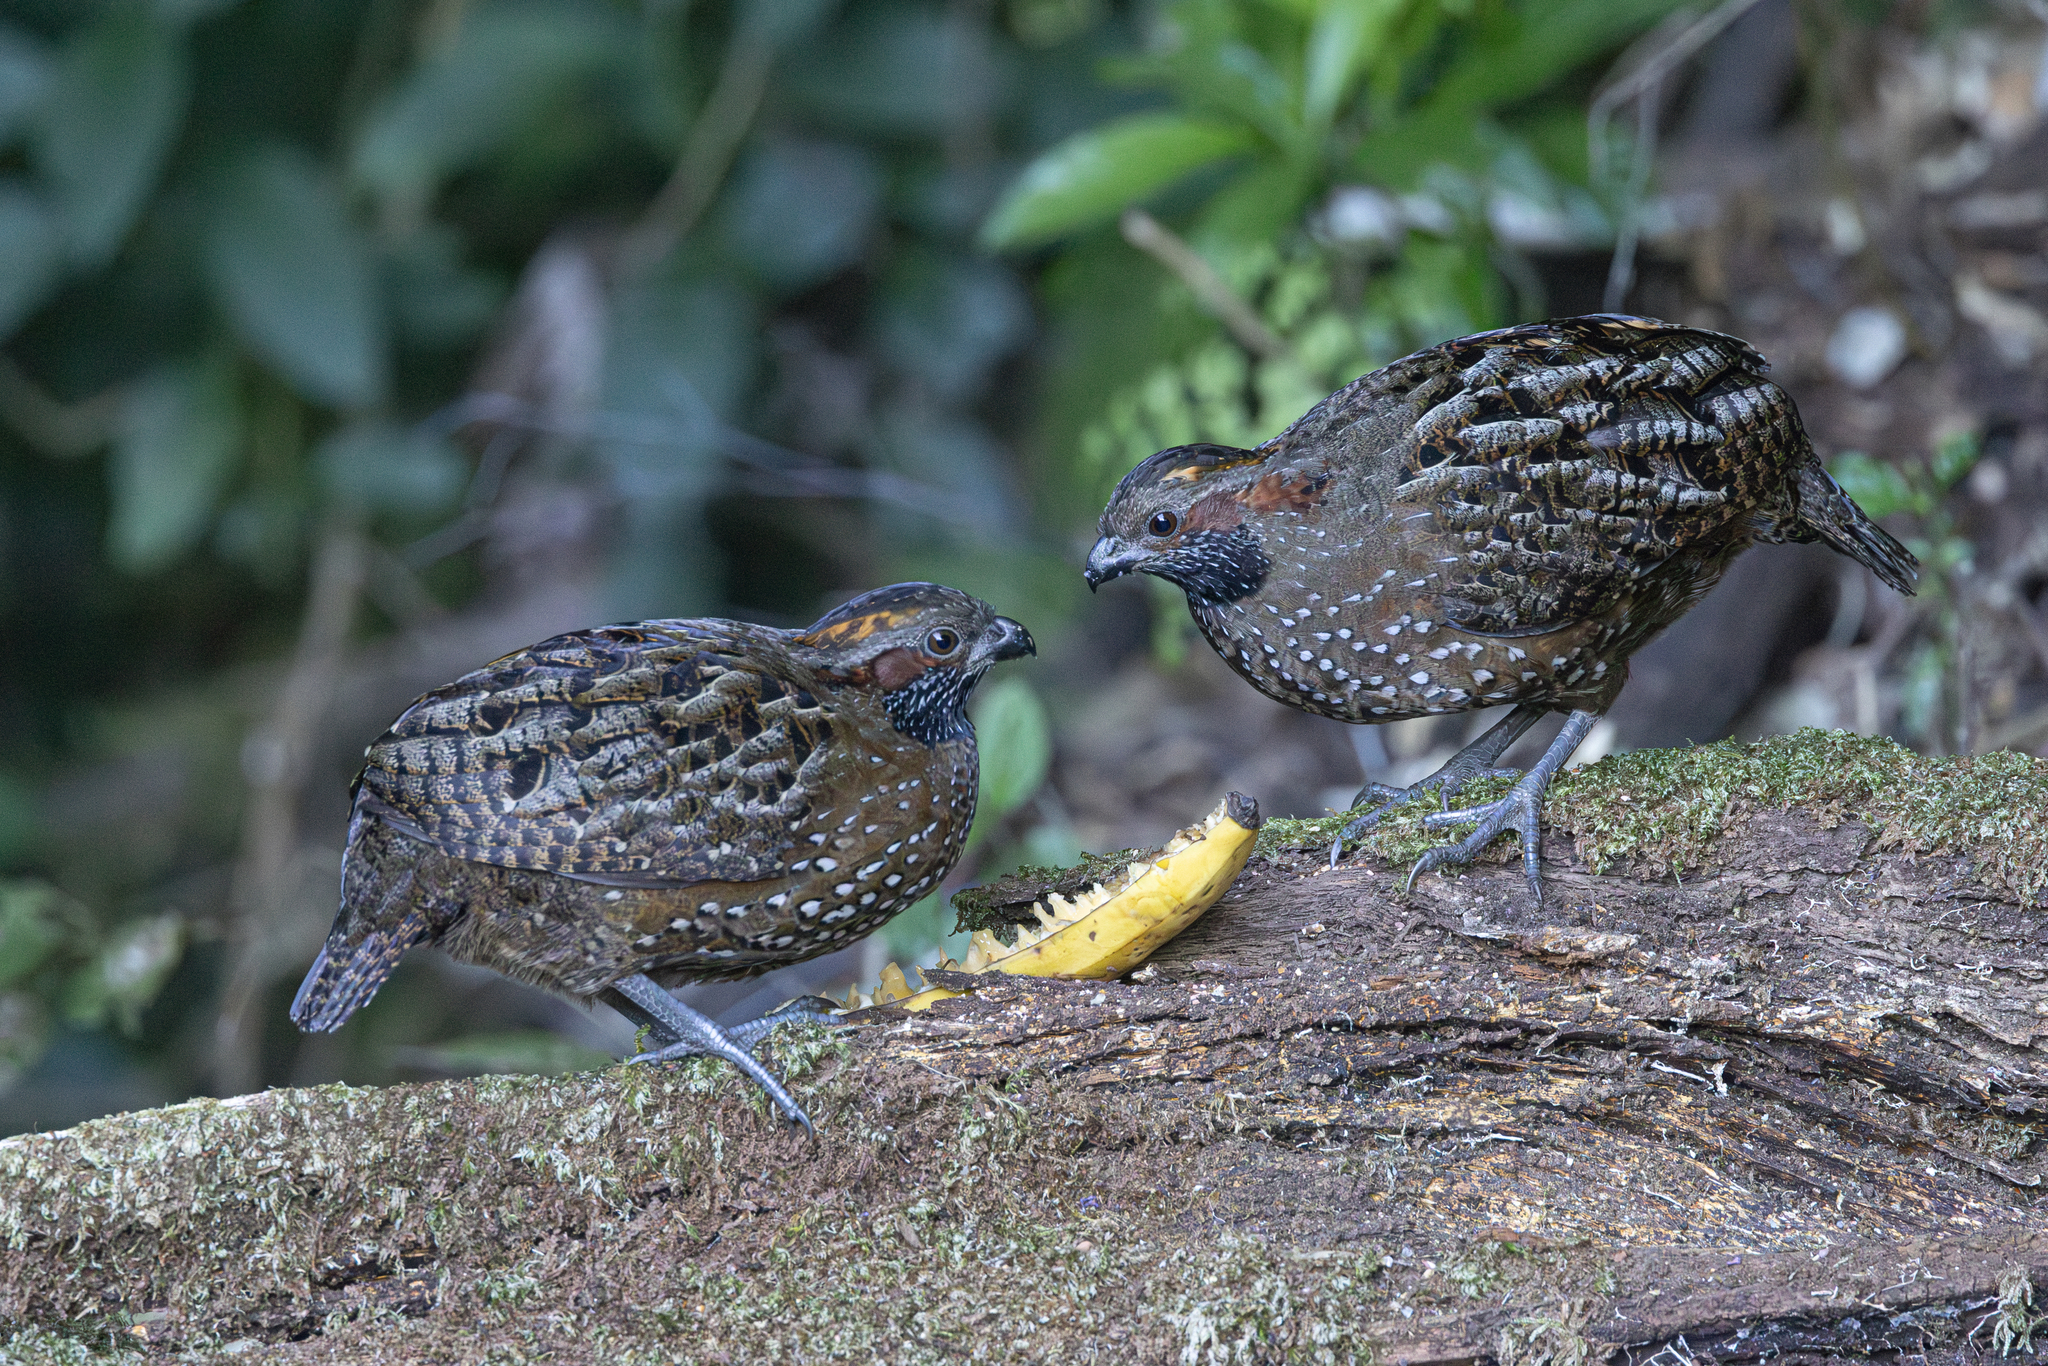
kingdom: Animalia
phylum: Chordata
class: Aves
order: Galliformes
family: Odontophoridae
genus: Odontophorus
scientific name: Odontophorus guttatus
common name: Spotted wood-quail
